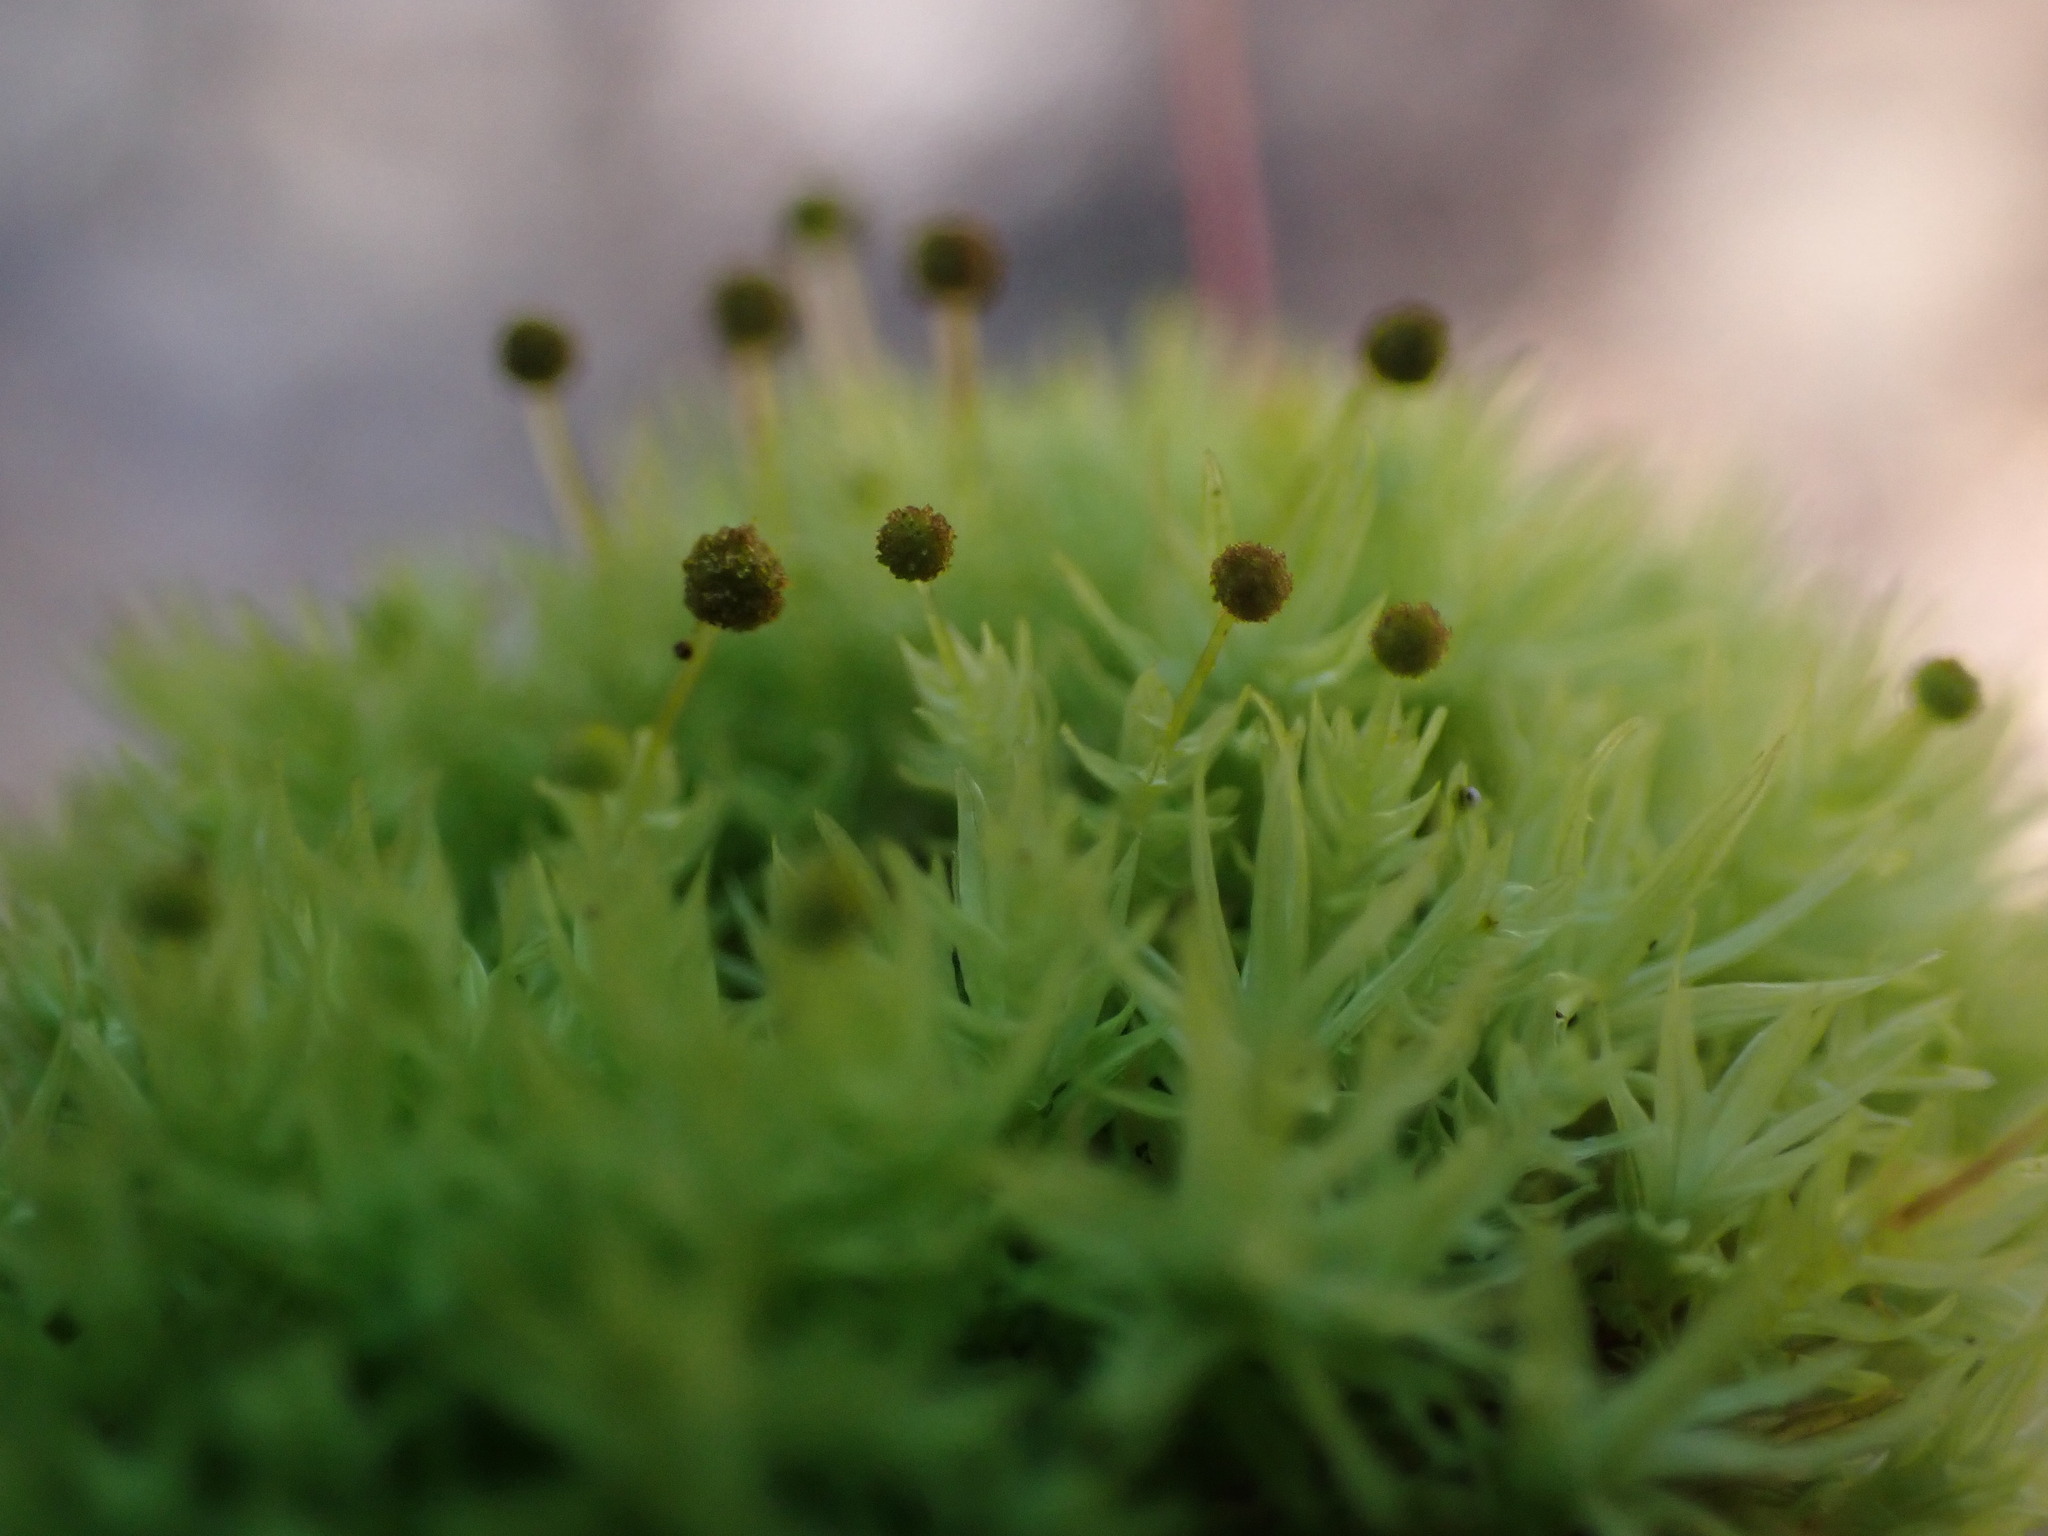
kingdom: Plantae
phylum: Bryophyta
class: Bryopsida
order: Aulacomniales
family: Aulacomniaceae
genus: Aulacomnium
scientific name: Aulacomnium androgynum
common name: Little groove moss
